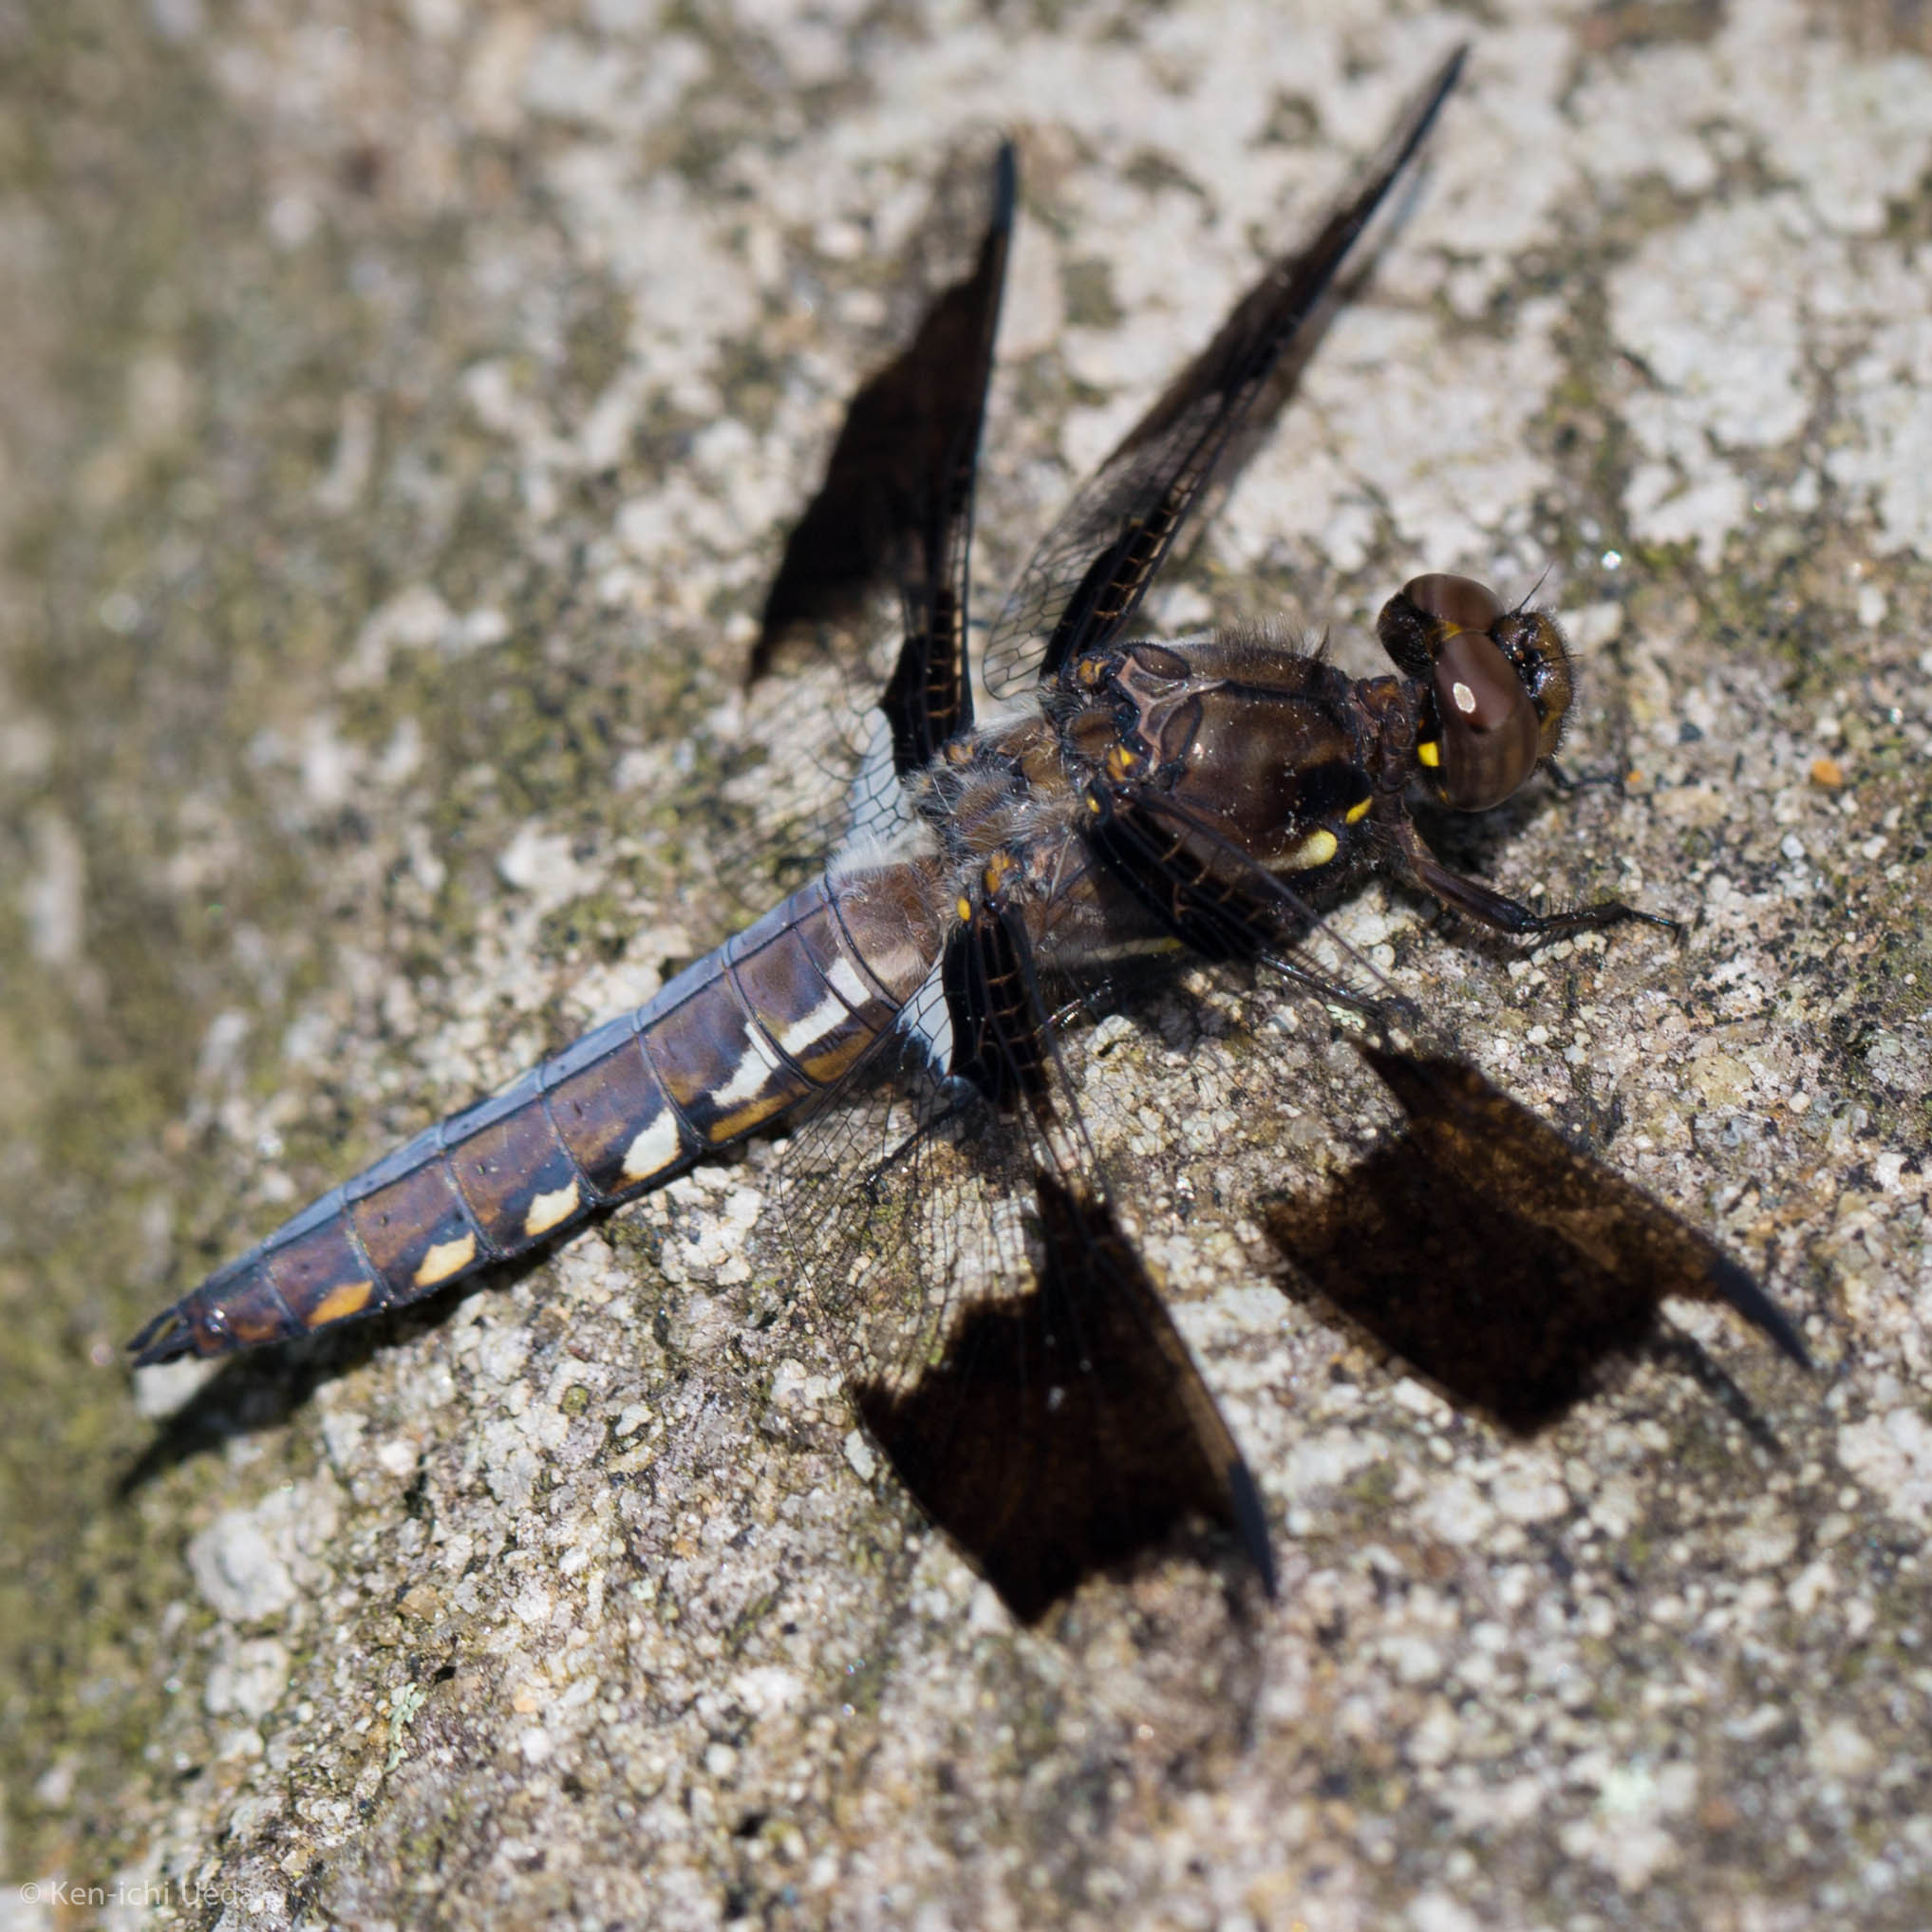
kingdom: Animalia
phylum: Arthropoda
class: Insecta
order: Odonata
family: Libellulidae
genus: Plathemis
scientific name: Plathemis lydia
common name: Common whitetail
